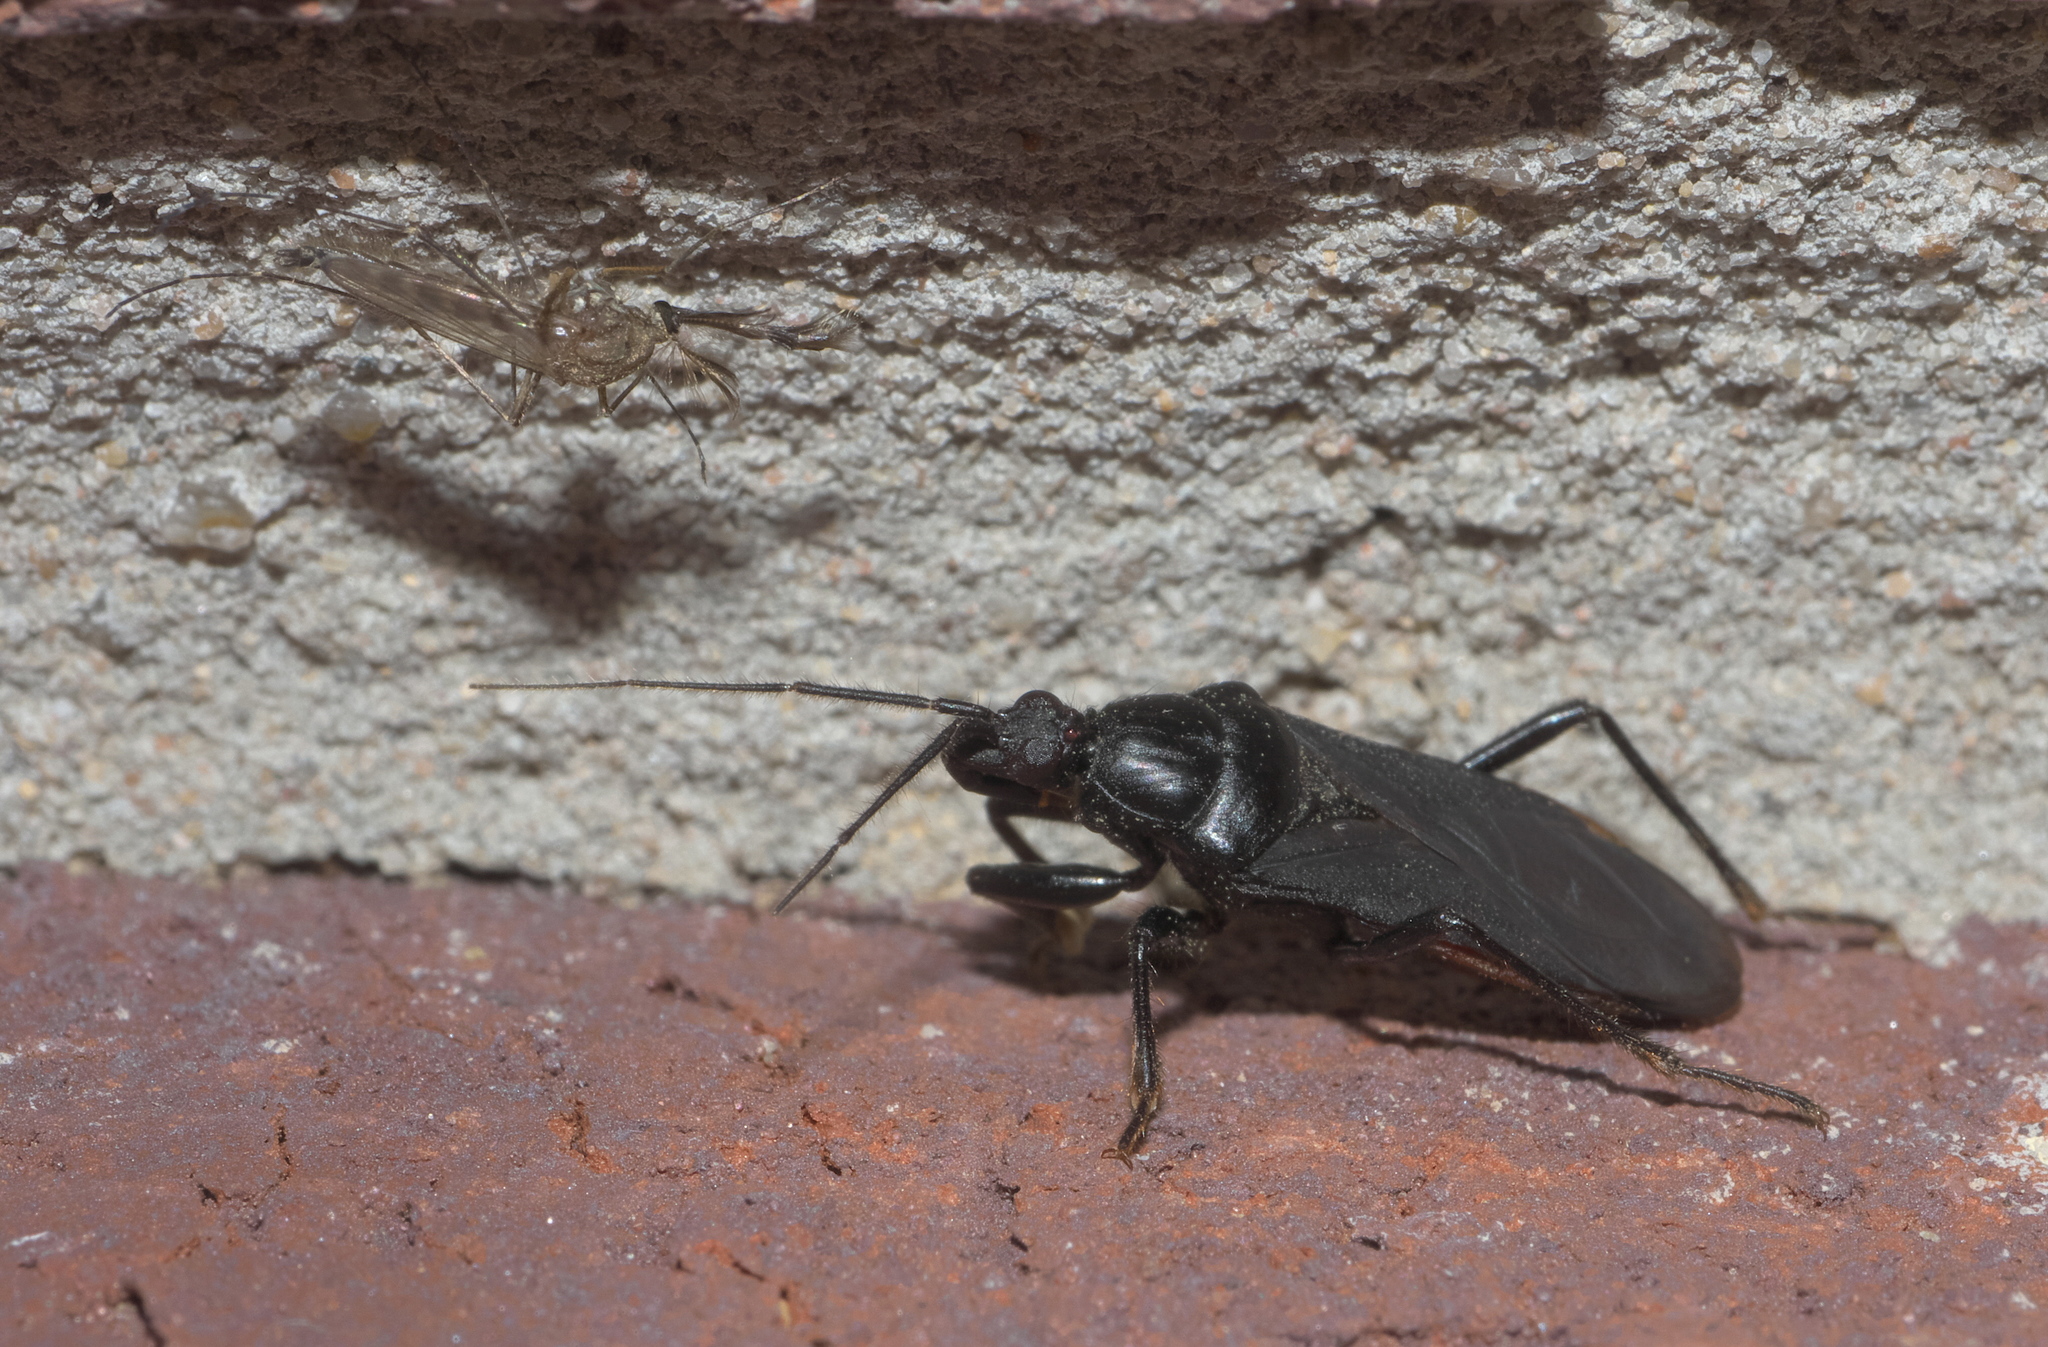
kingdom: Animalia
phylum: Arthropoda
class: Insecta
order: Hemiptera
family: Reduviidae
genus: Melanolestes
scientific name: Melanolestes picipes
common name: Assassin bug
